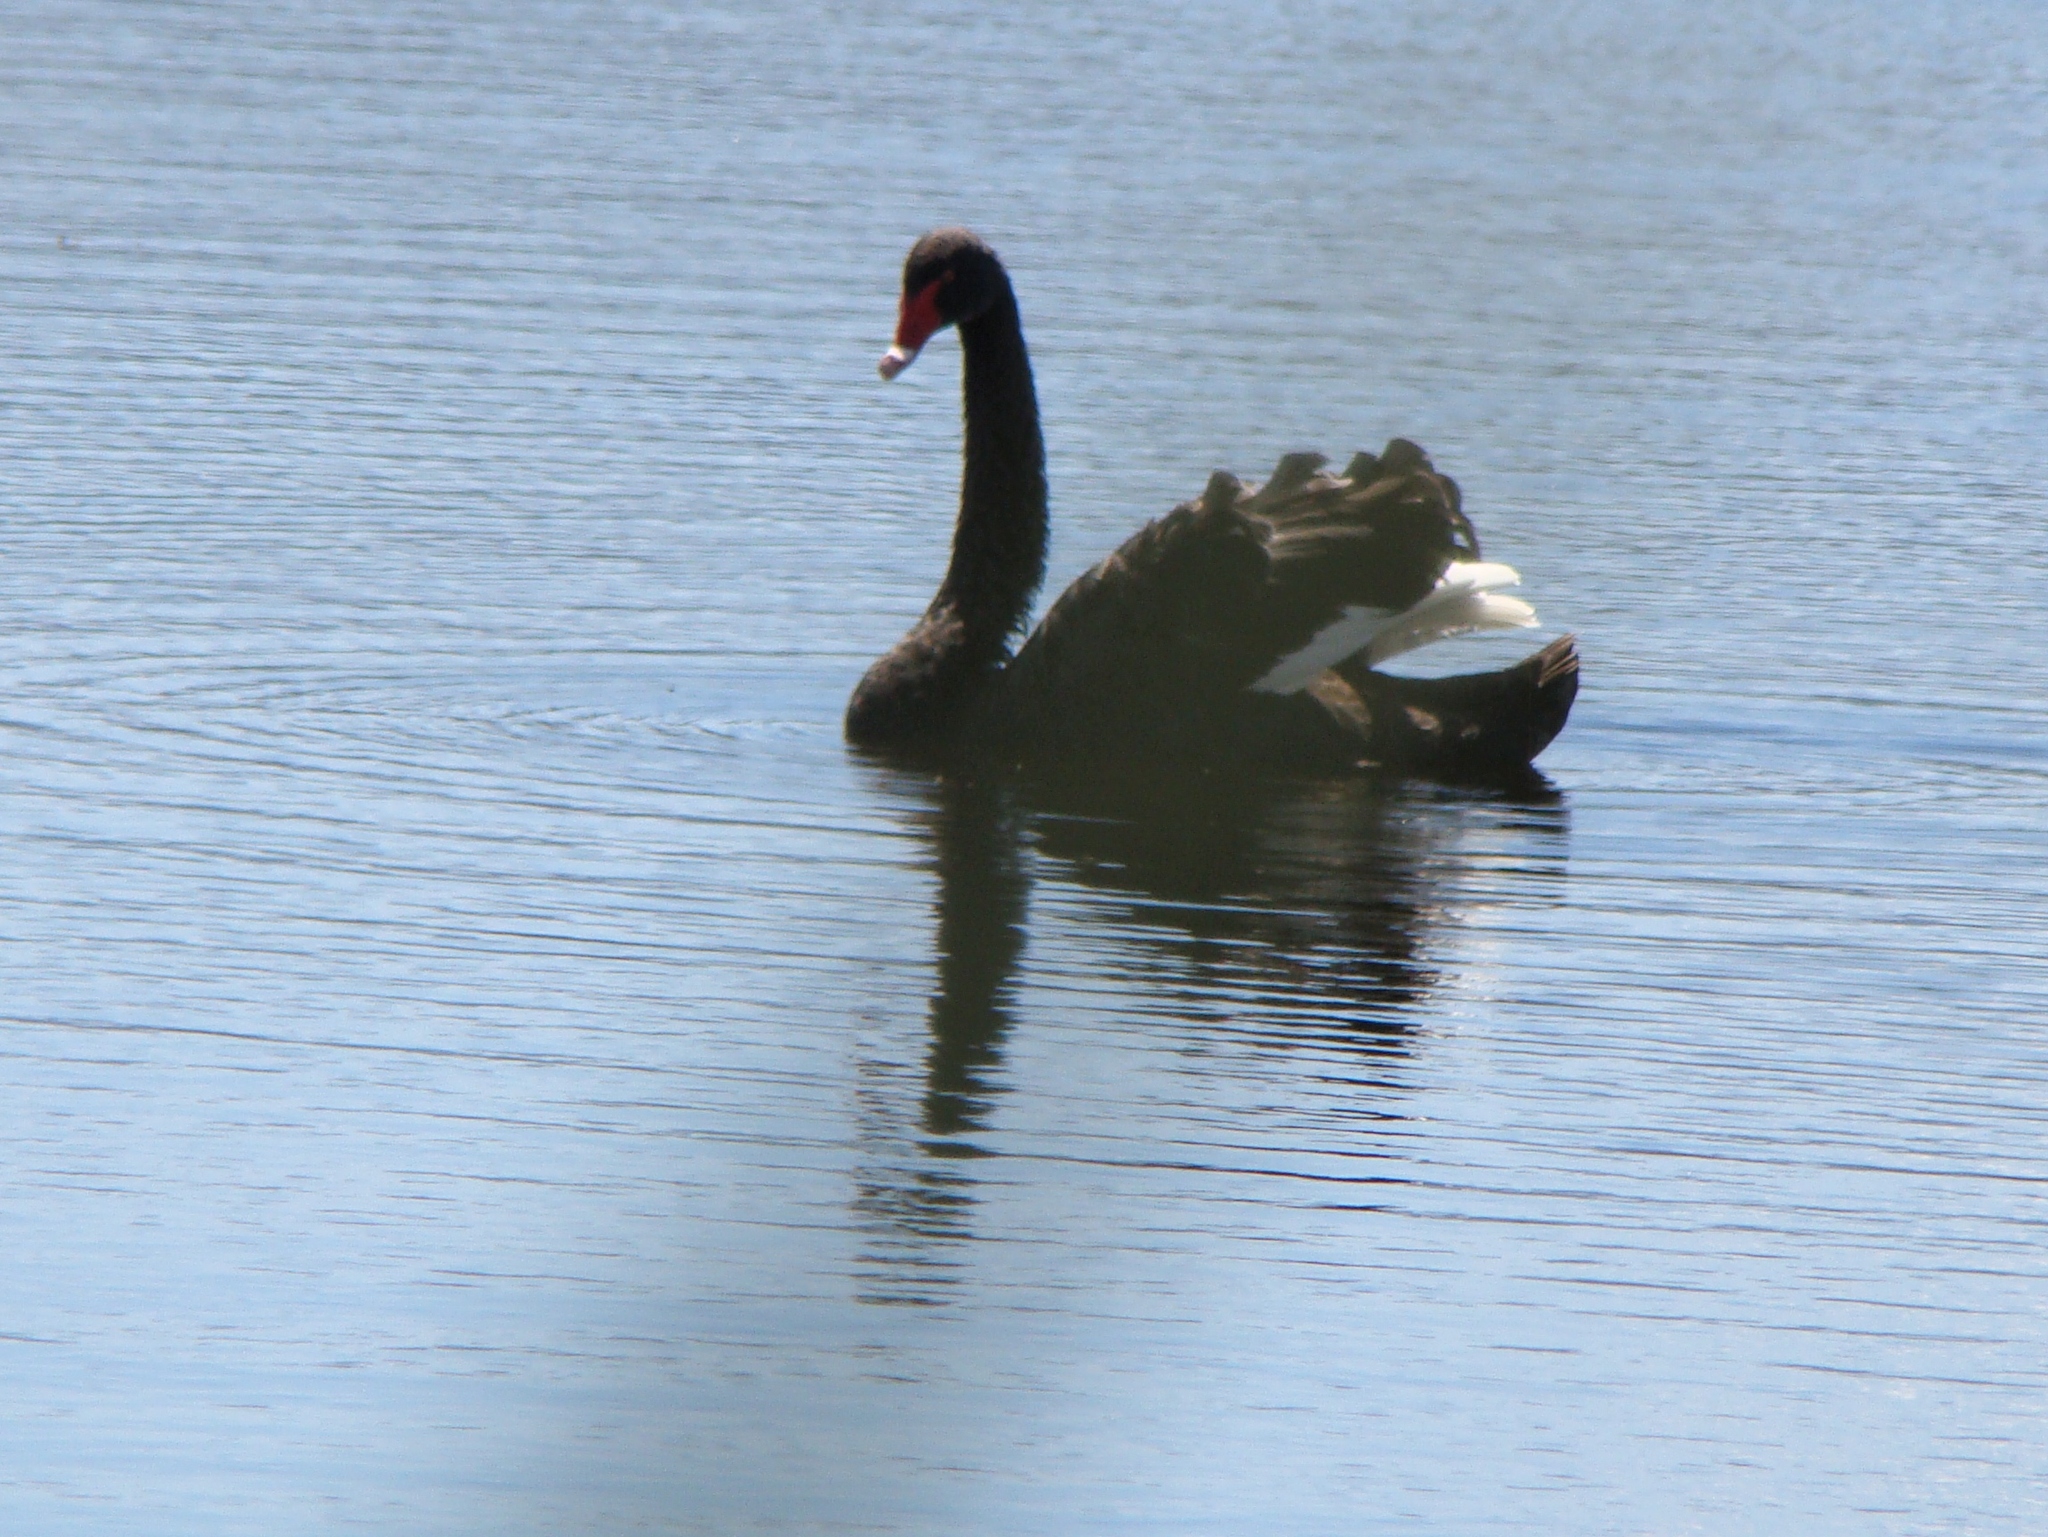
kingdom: Animalia
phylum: Chordata
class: Aves
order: Anseriformes
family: Anatidae
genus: Cygnus
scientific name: Cygnus atratus
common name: Black swan
